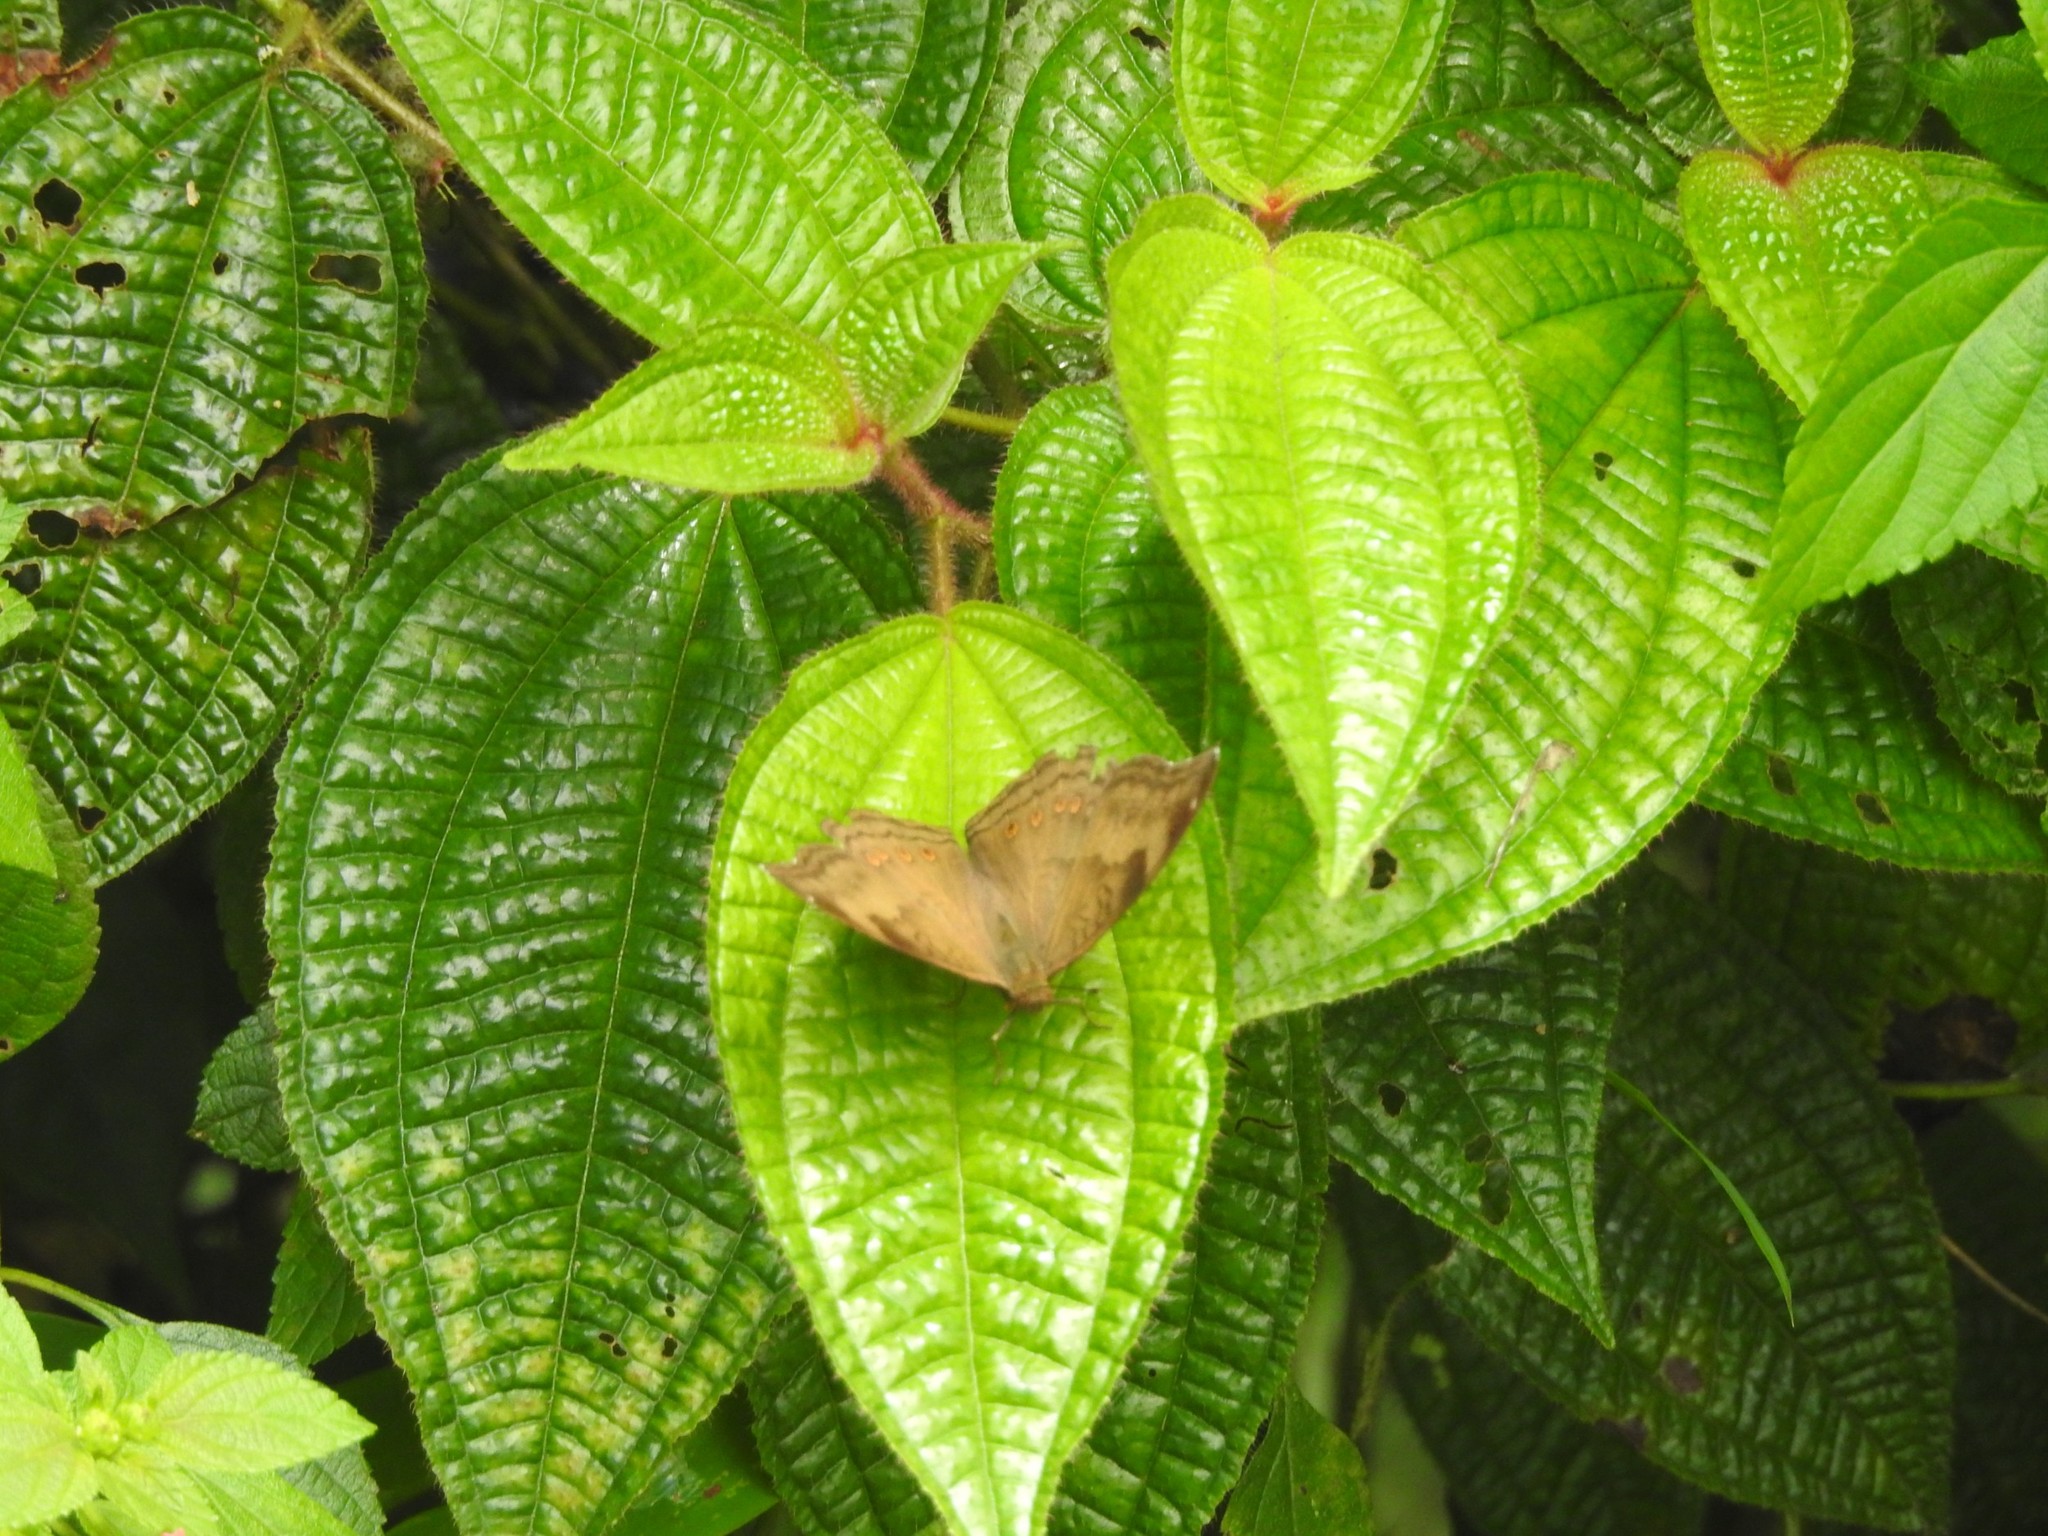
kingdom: Animalia
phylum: Arthropoda
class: Insecta
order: Lepidoptera
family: Nymphalidae
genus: Junonia
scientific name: Junonia iphita
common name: Chocolate pansy
